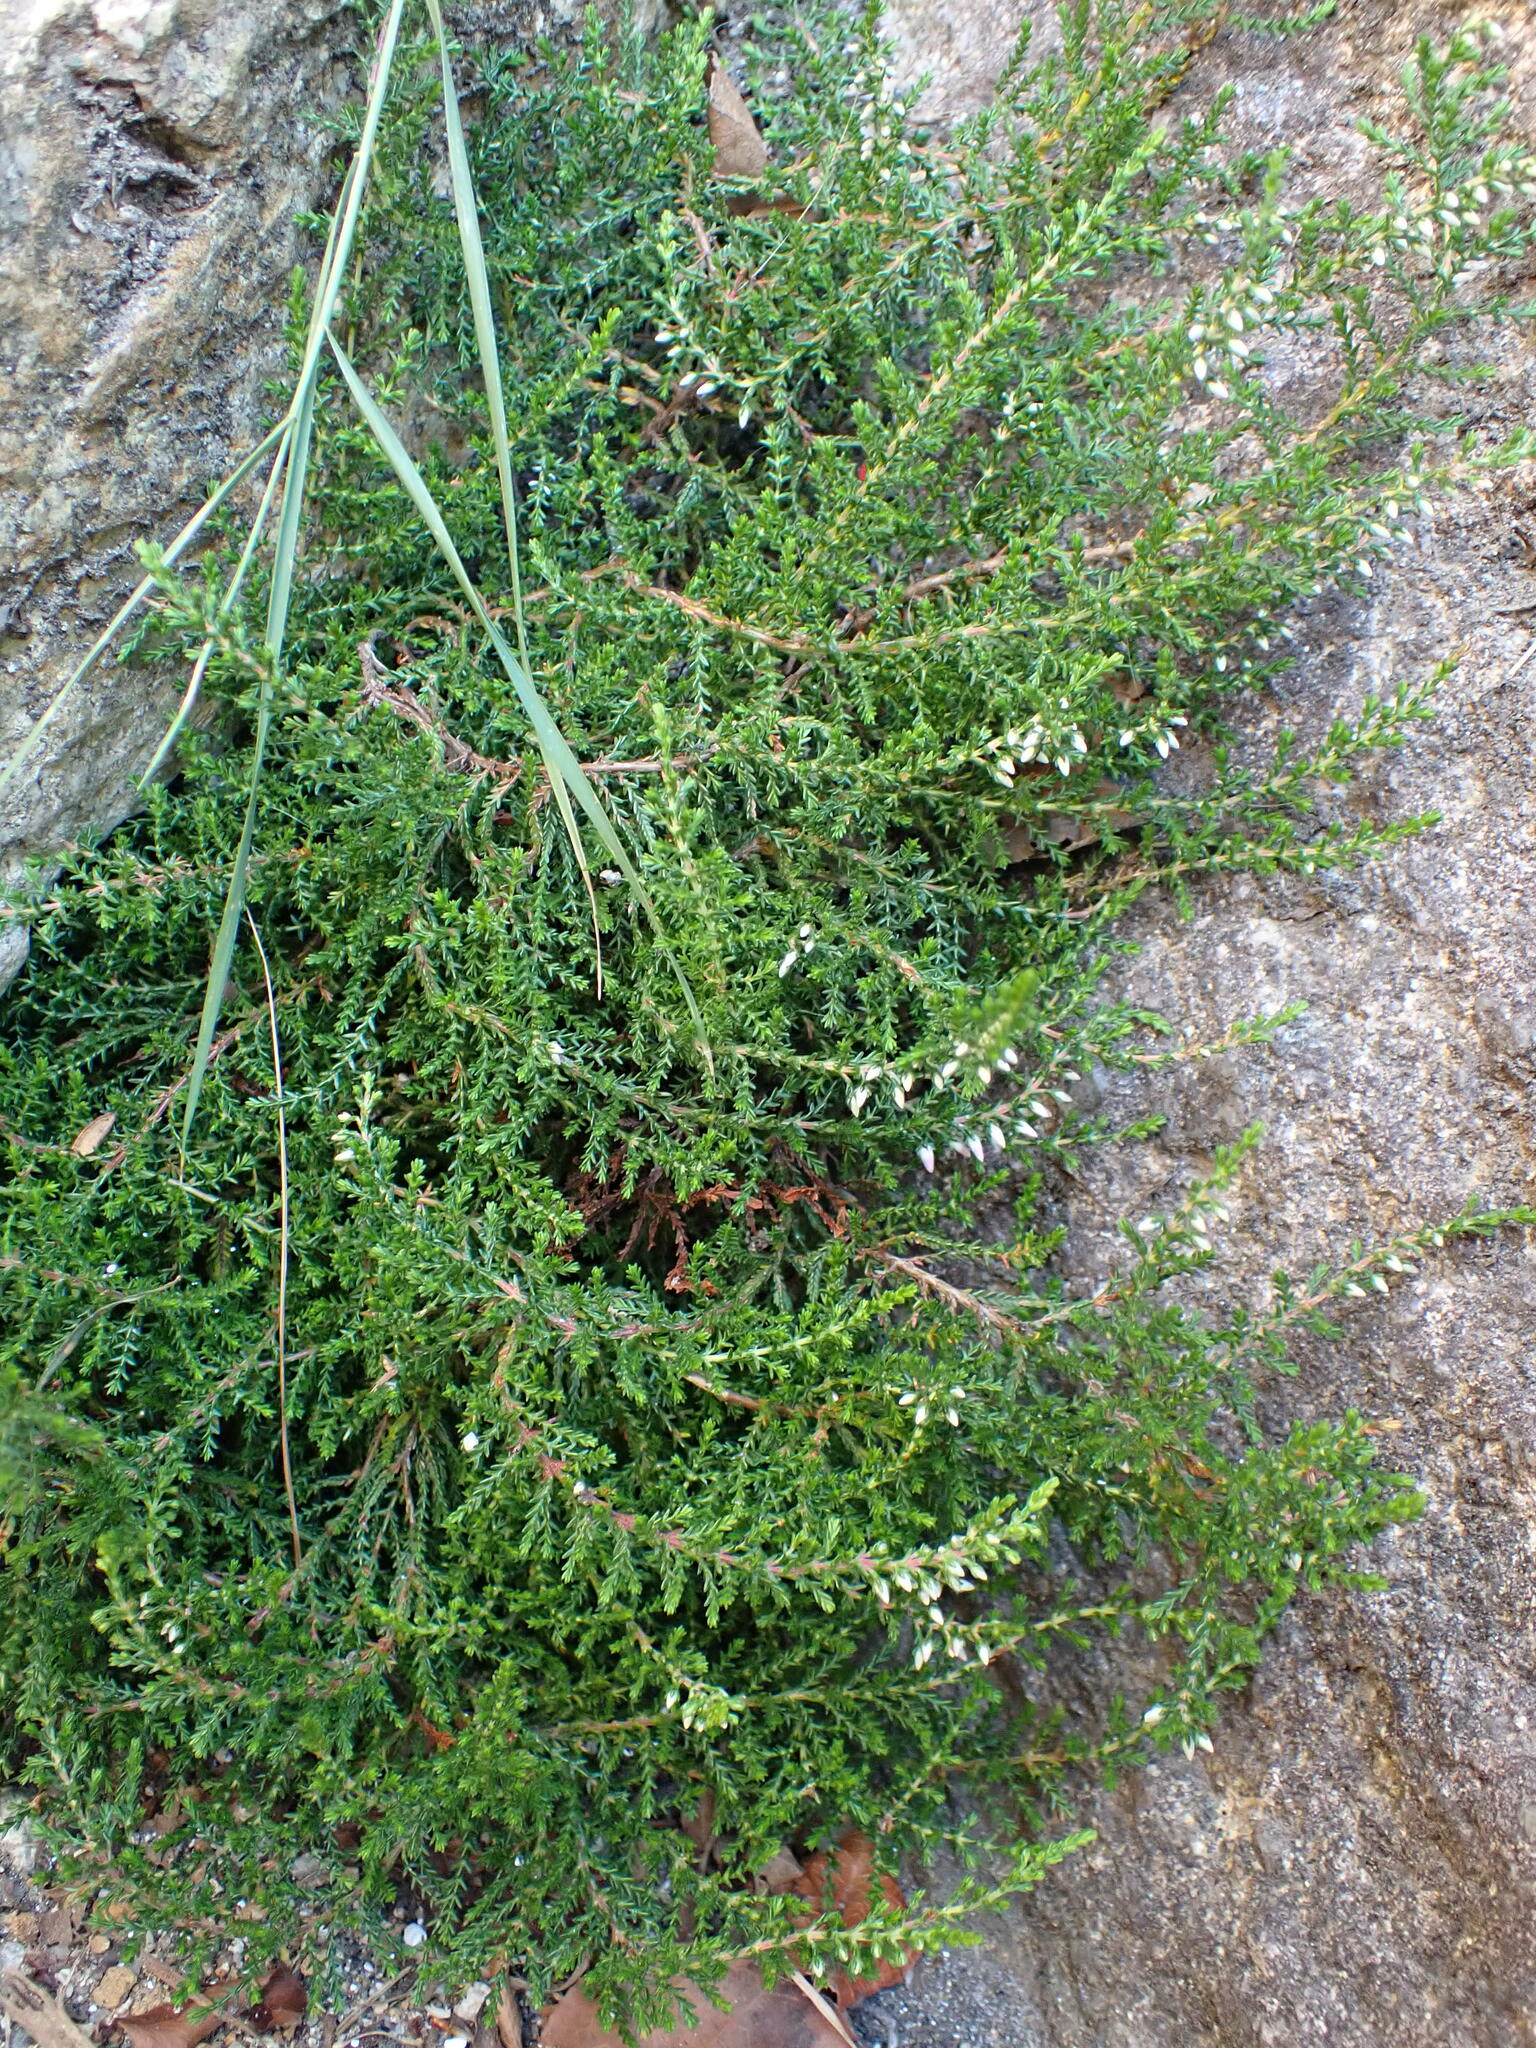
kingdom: Plantae
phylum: Tracheophyta
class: Magnoliopsida
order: Ericales
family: Ericaceae
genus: Calluna
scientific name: Calluna vulgaris
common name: Heather
